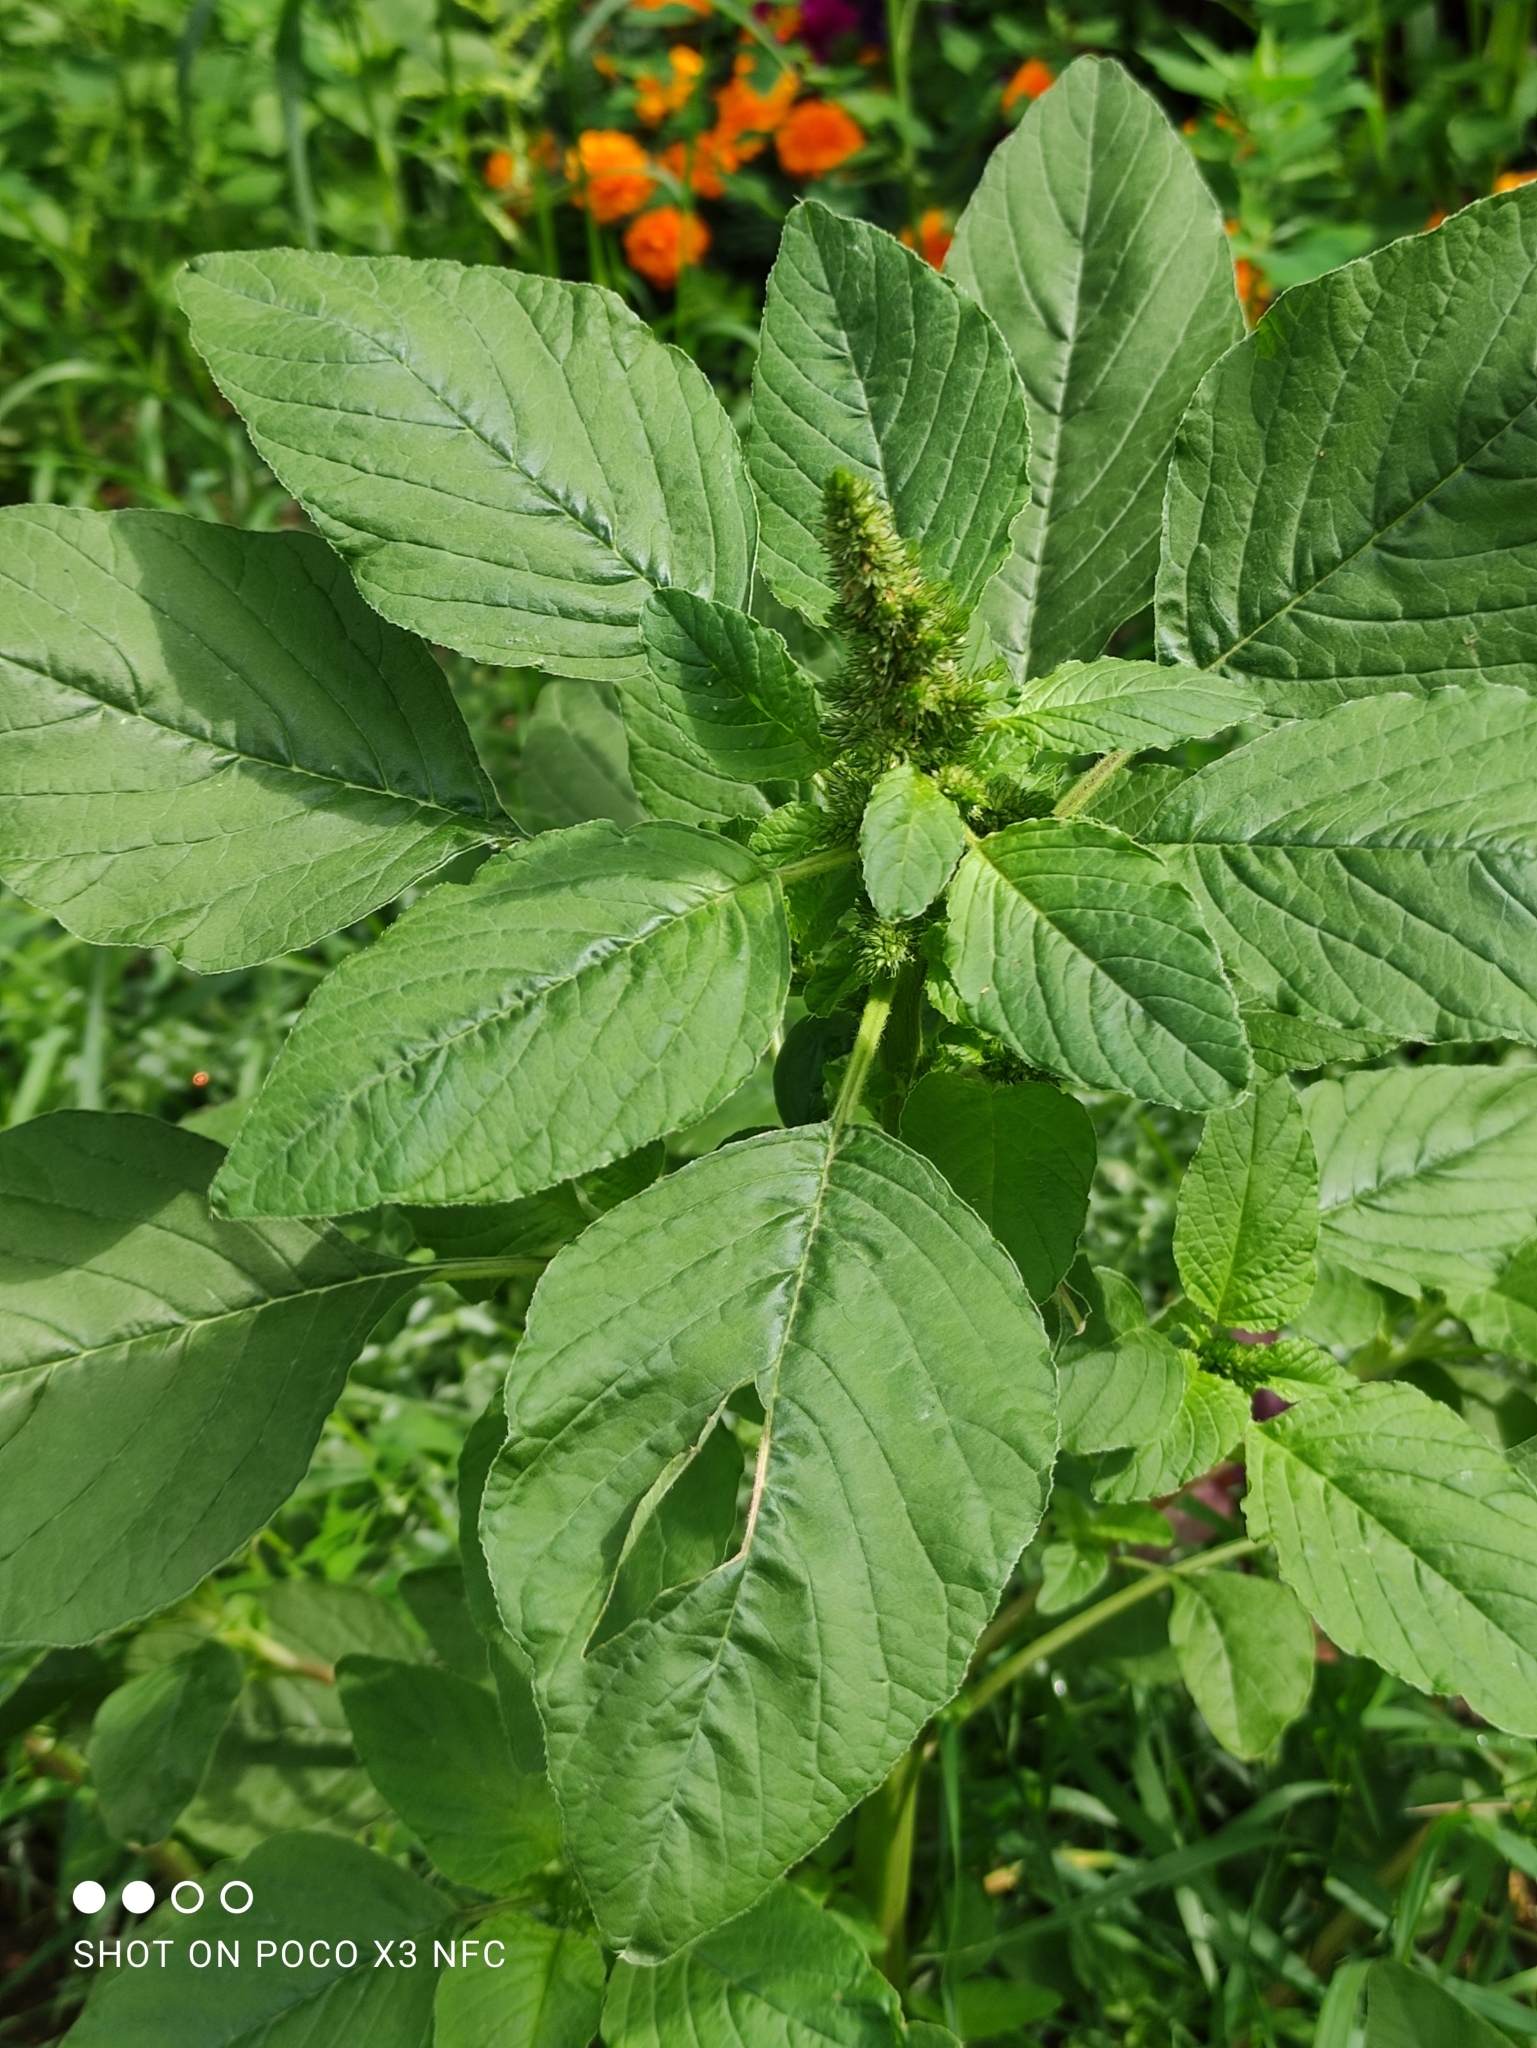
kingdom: Plantae
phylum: Tracheophyta
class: Magnoliopsida
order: Caryophyllales
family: Amaranthaceae
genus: Amaranthus
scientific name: Amaranthus retroflexus
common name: Redroot amaranth
